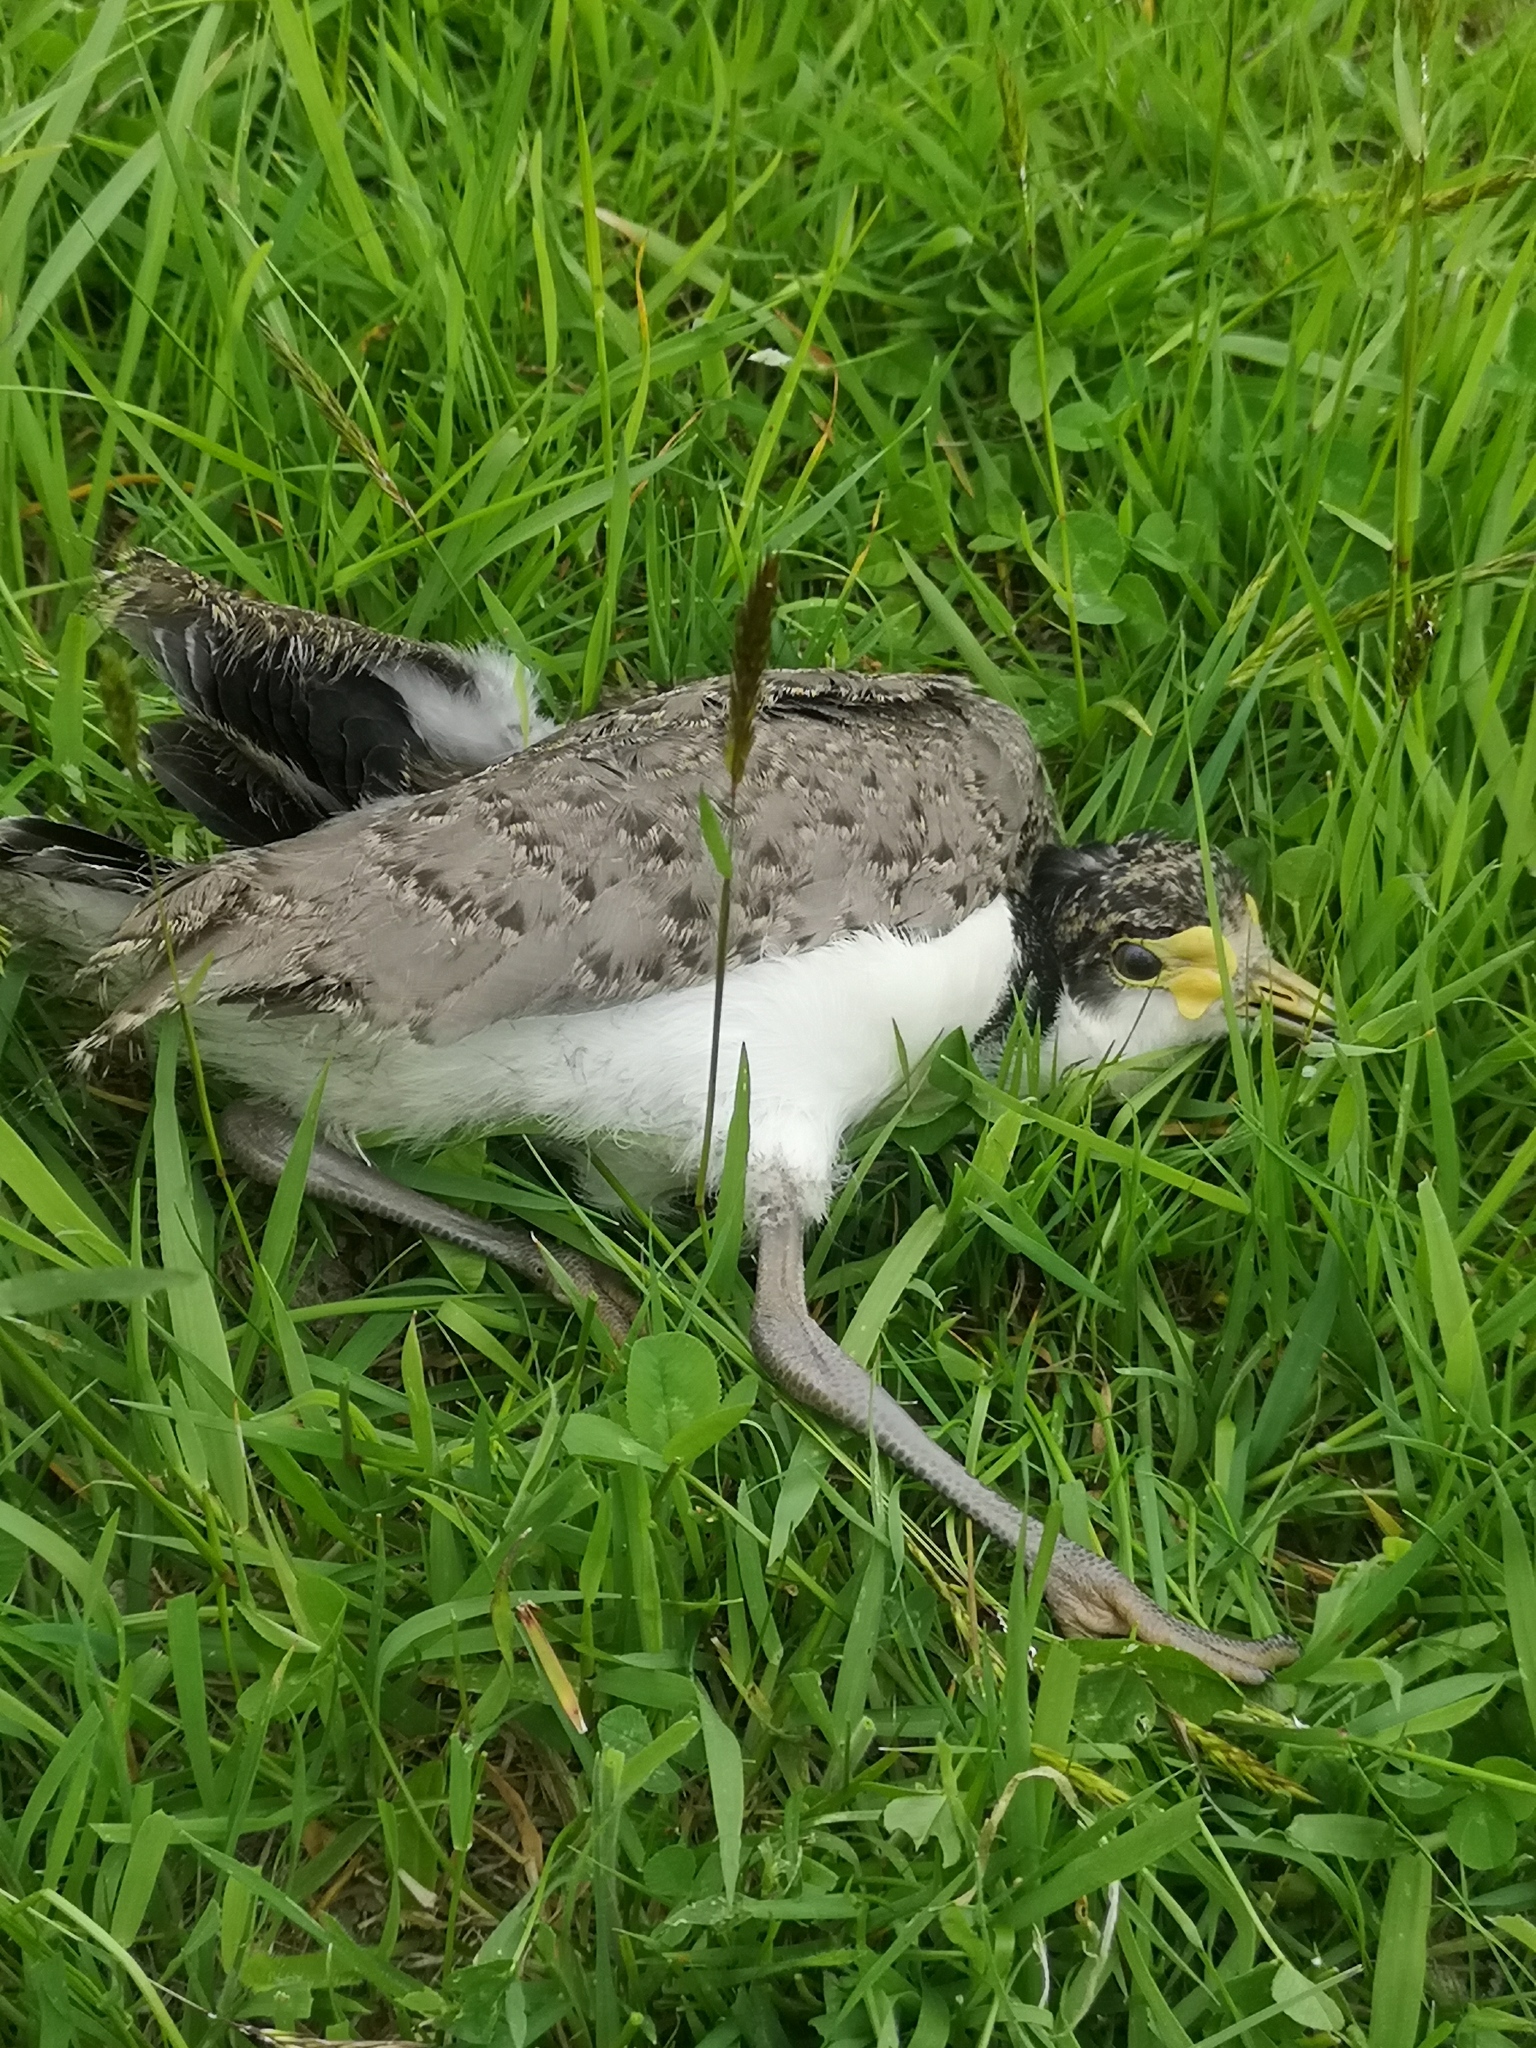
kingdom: Animalia
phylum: Chordata
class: Aves
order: Charadriiformes
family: Charadriidae
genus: Vanellus
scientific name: Vanellus miles
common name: Masked lapwing
